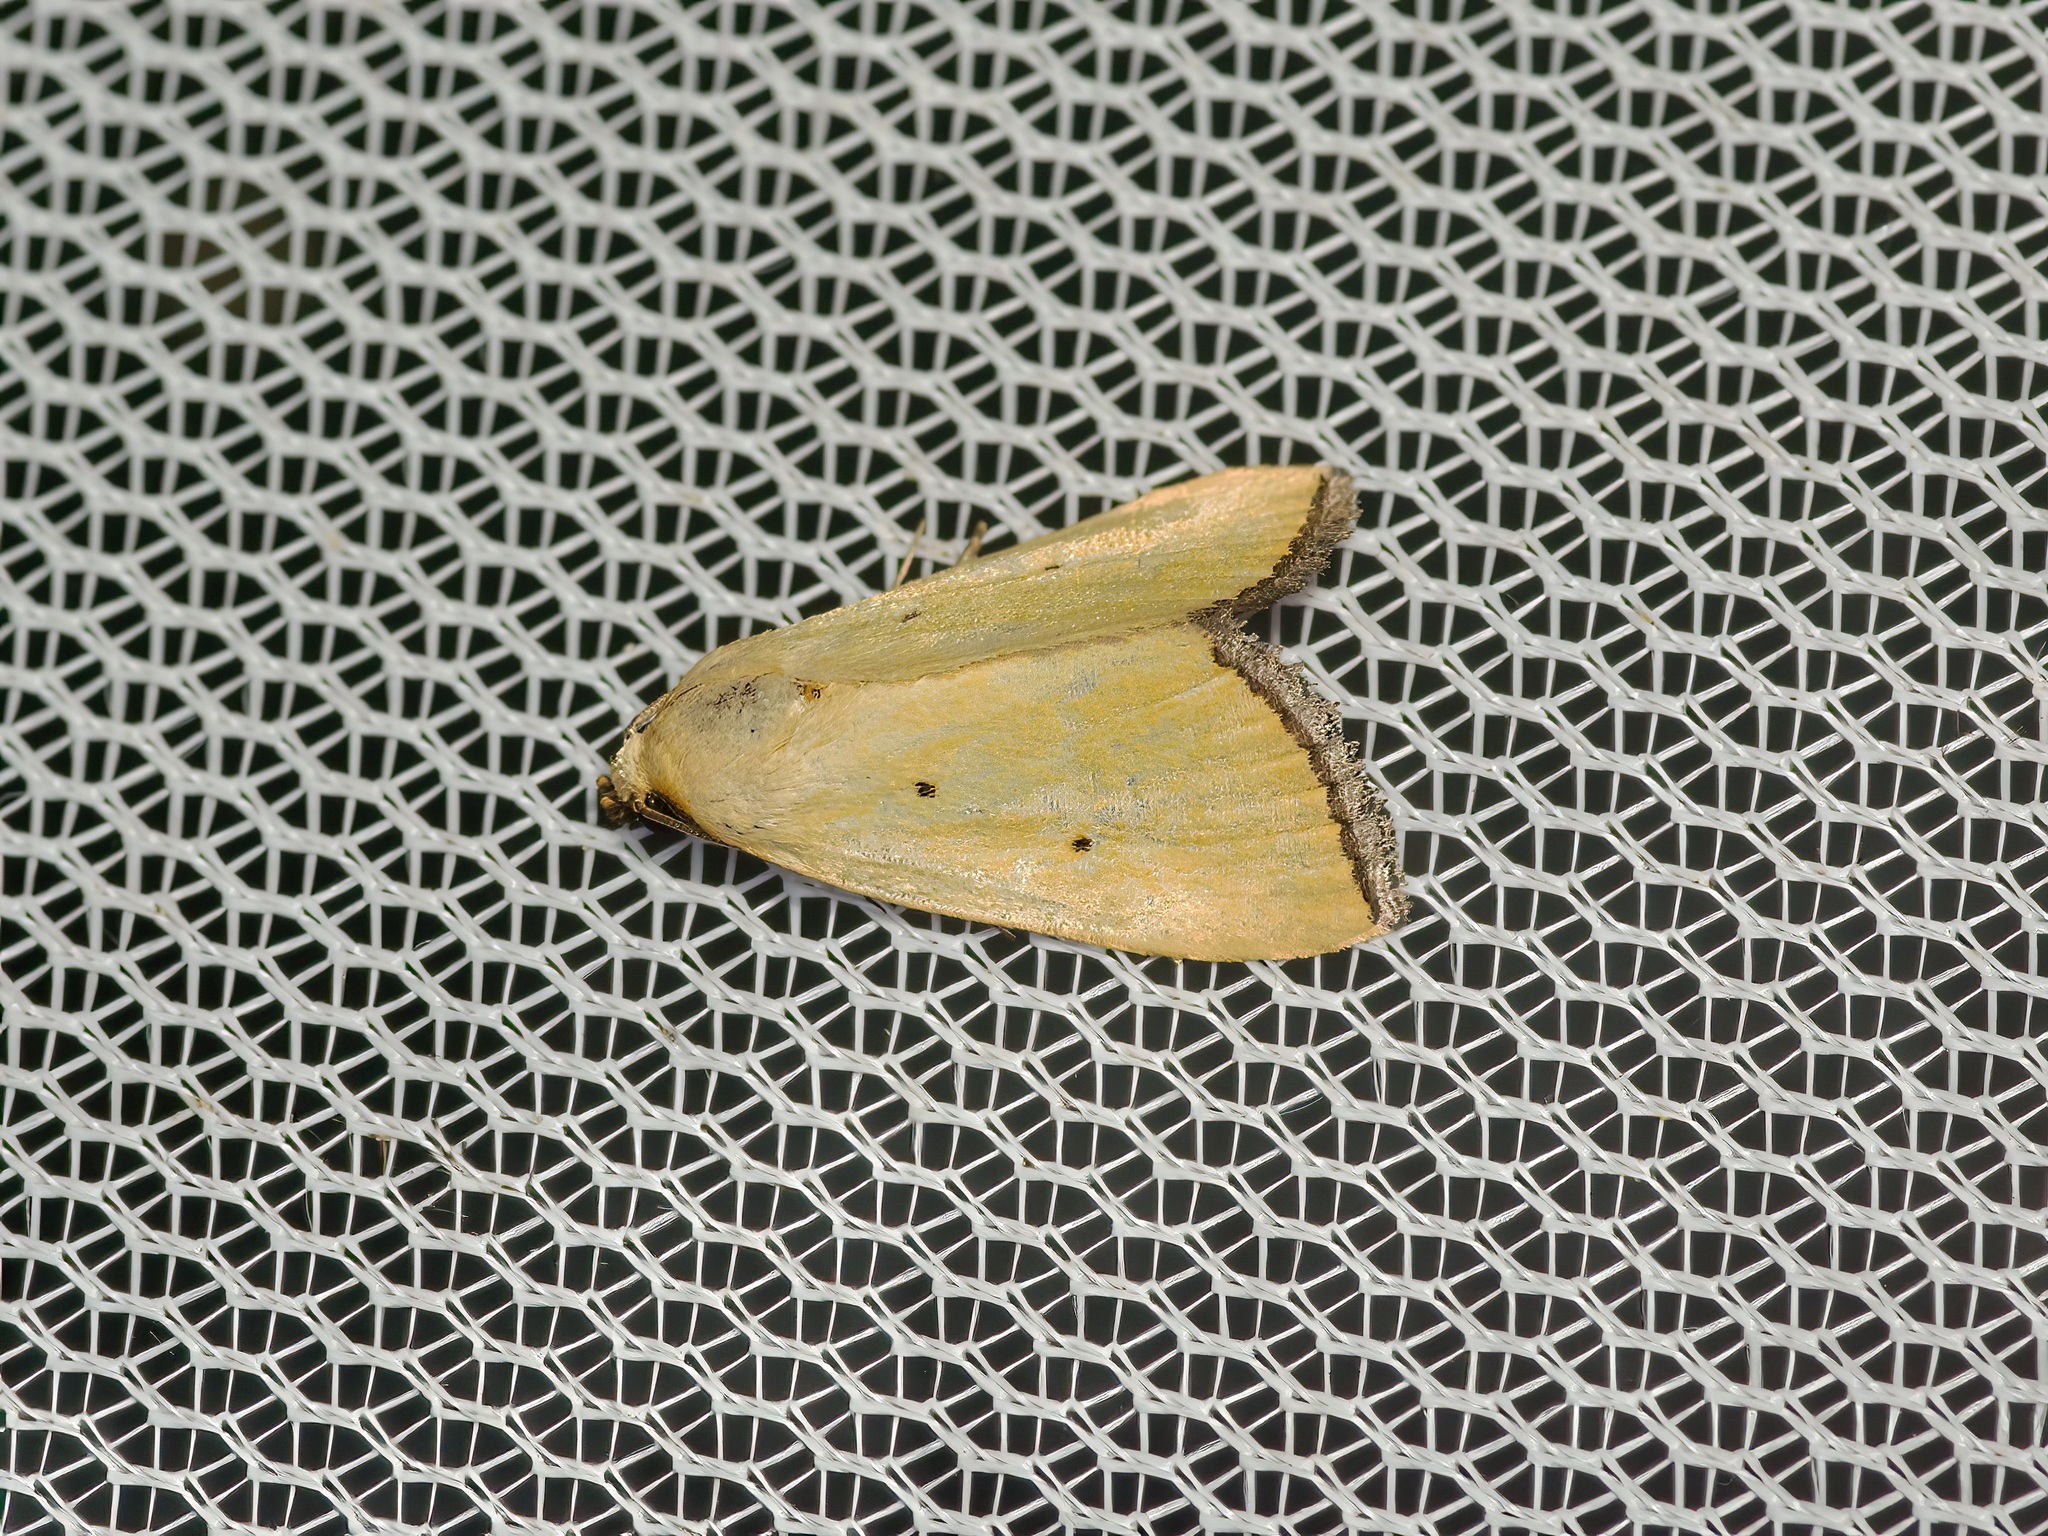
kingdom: Animalia
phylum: Arthropoda
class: Insecta
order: Lepidoptera
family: Noctuidae
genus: Marimatha
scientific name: Marimatha nigrofimbria
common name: Black-bordered lemon moth
